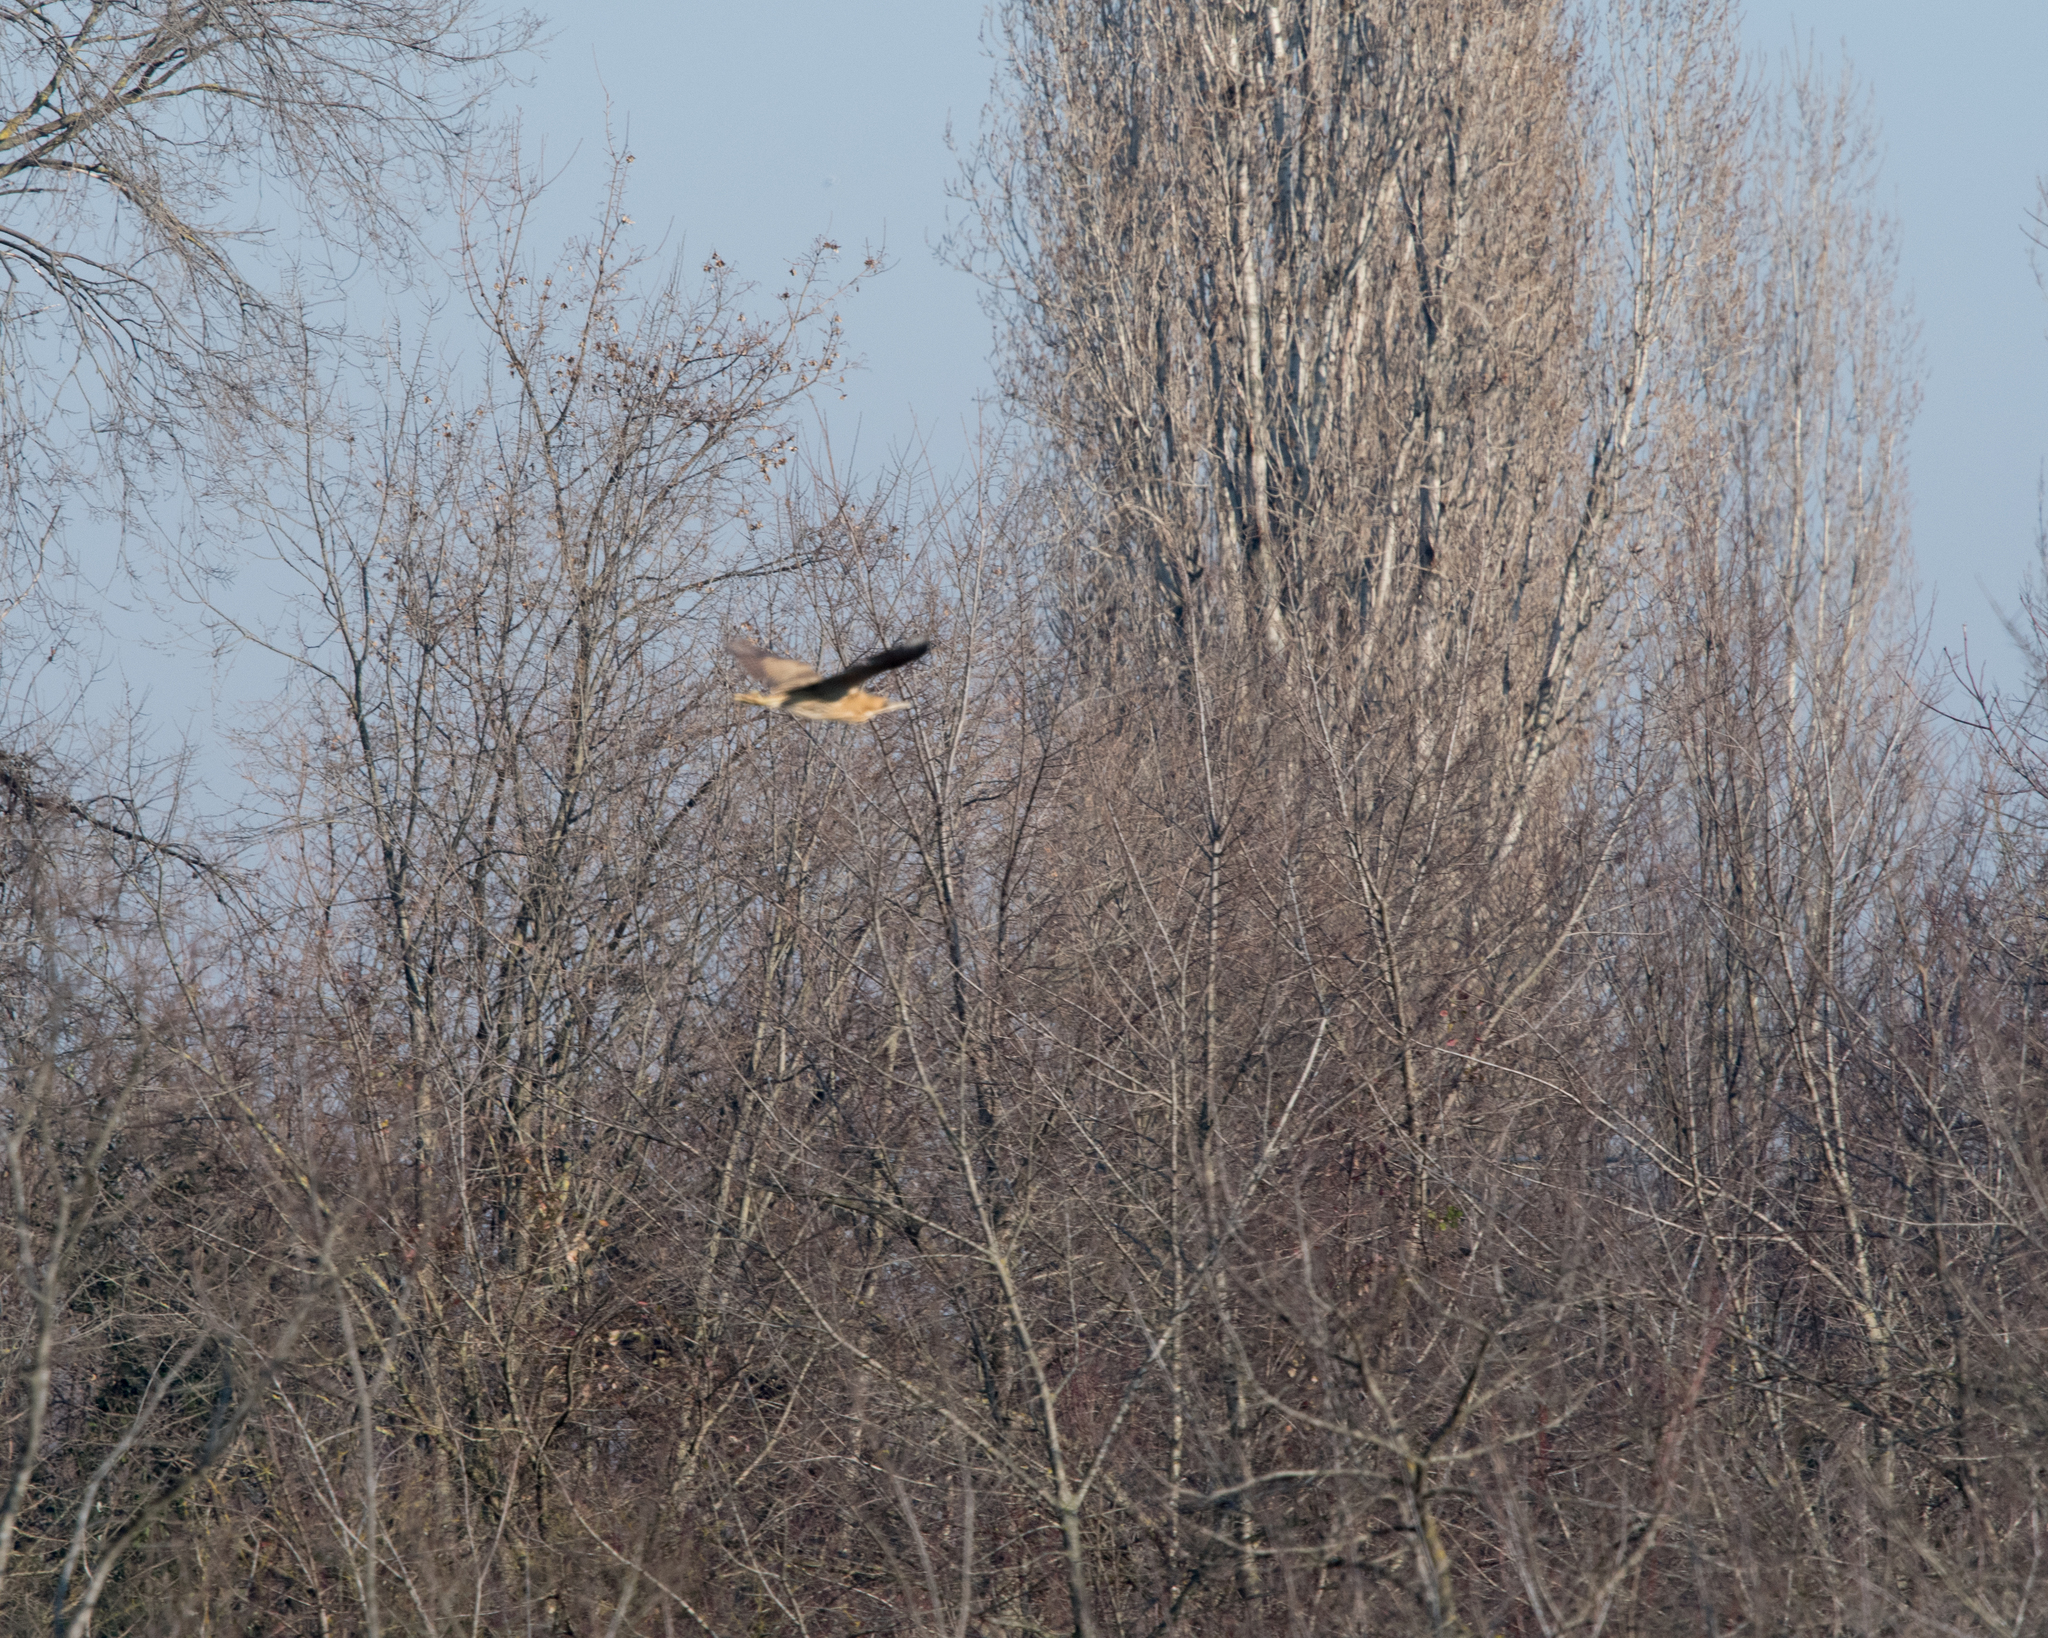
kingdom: Animalia
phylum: Chordata
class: Aves
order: Pelecaniformes
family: Ardeidae
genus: Botaurus
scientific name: Botaurus stellaris
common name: Eurasian bittern
